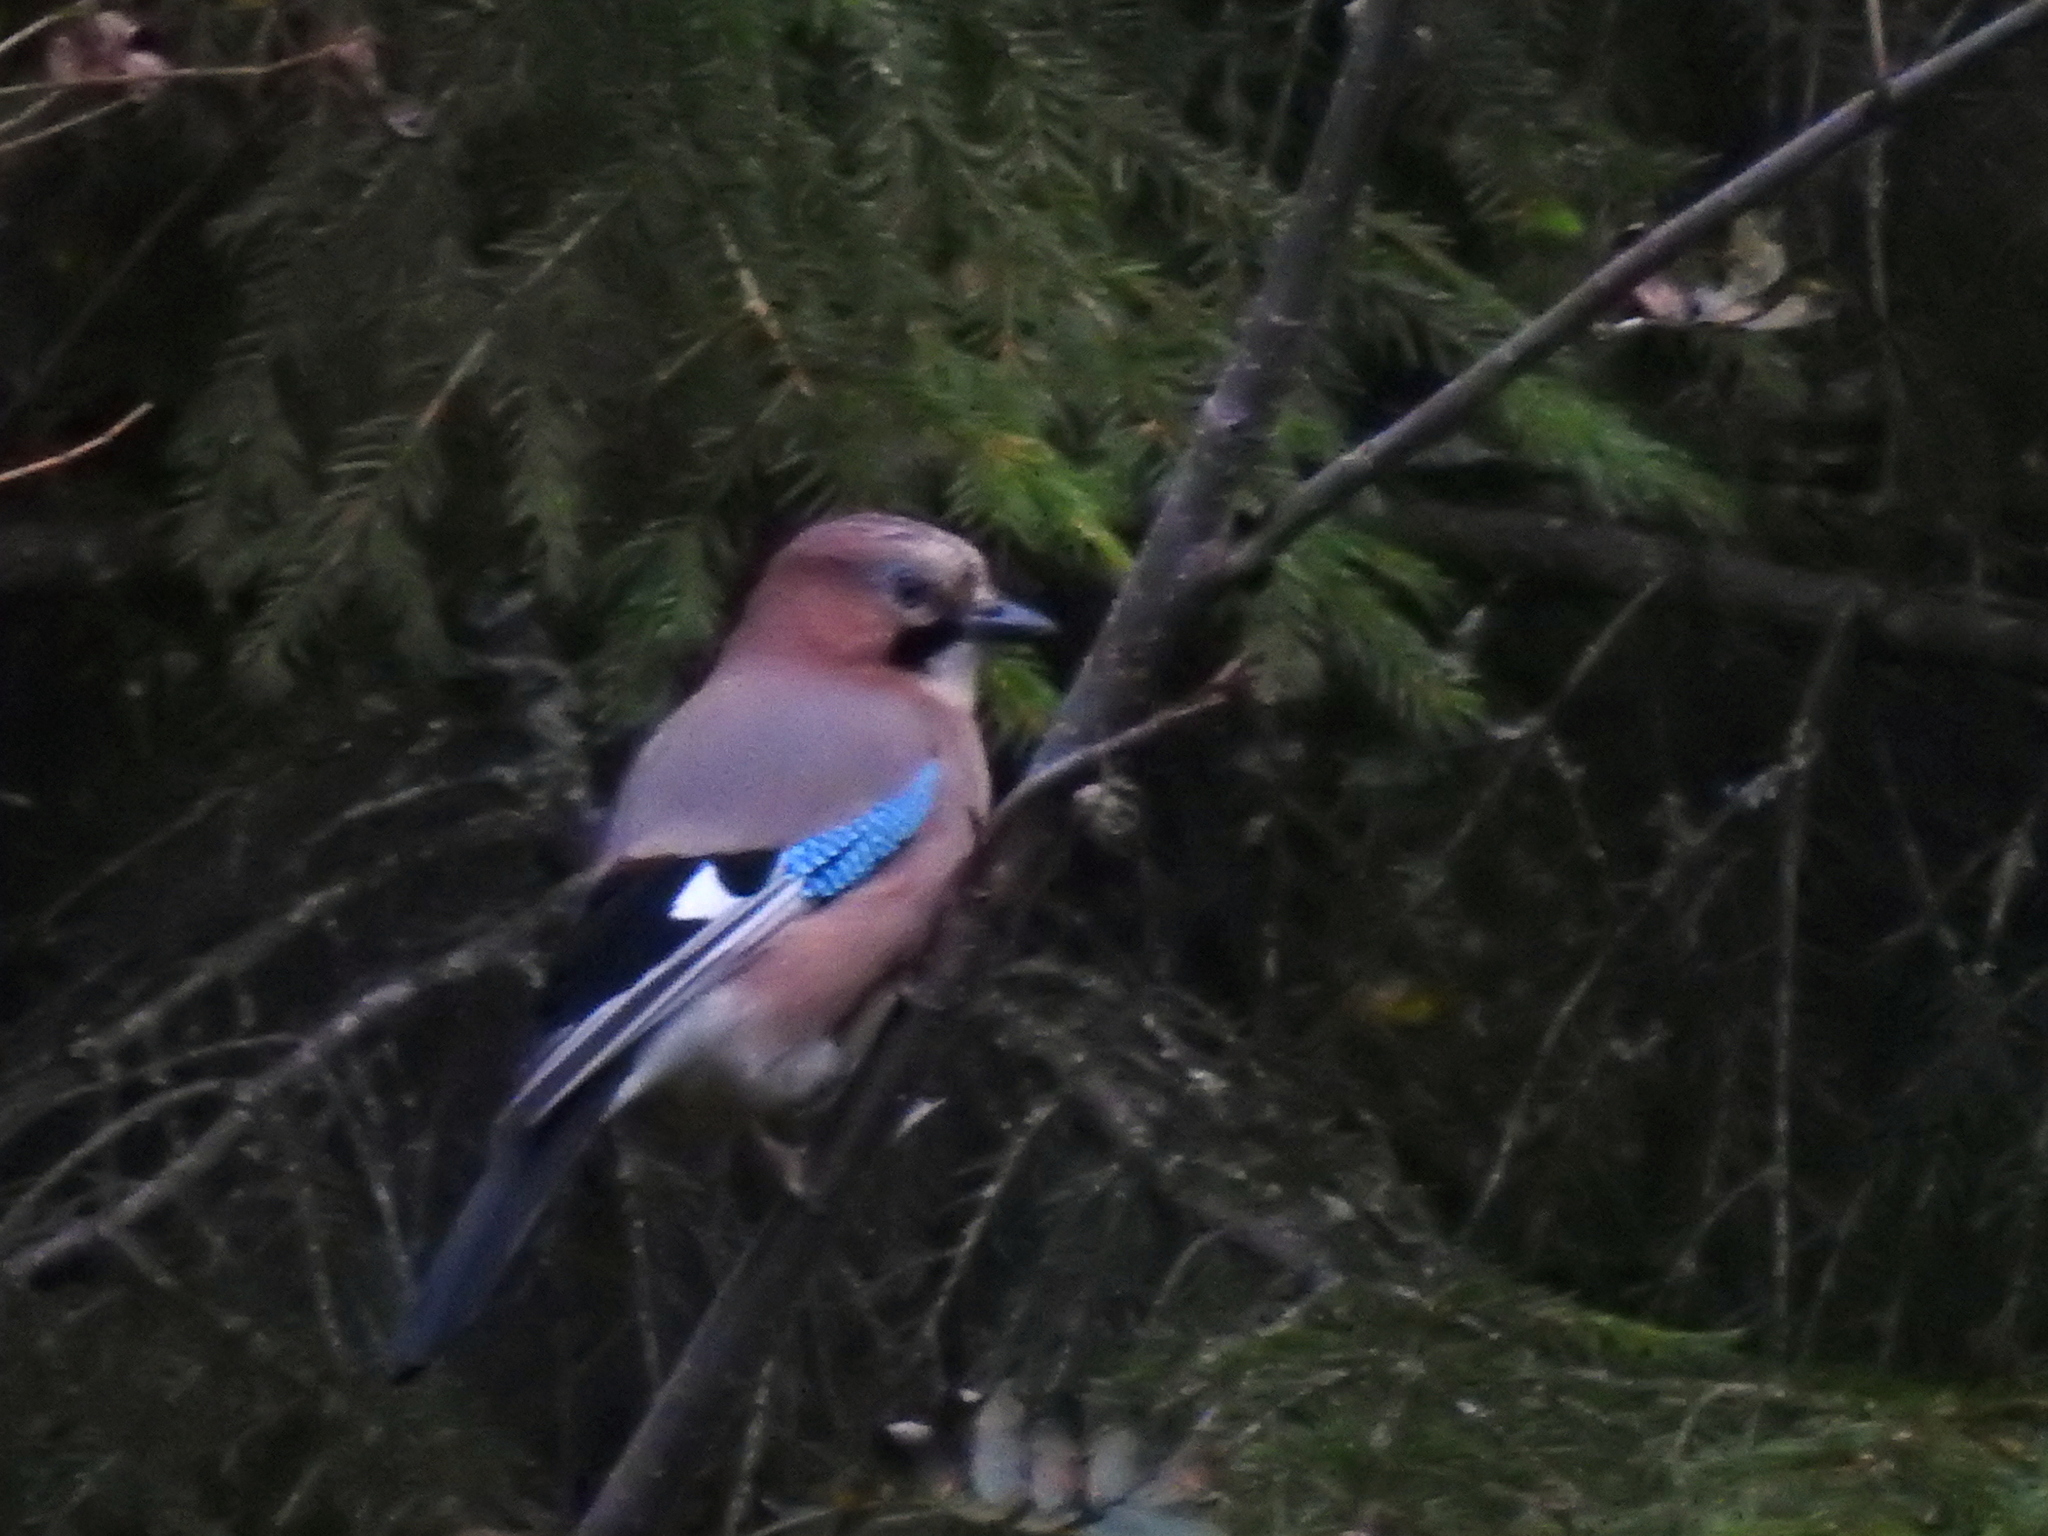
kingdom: Animalia
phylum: Chordata
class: Aves
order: Passeriformes
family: Corvidae
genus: Garrulus
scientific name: Garrulus glandarius
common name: Eurasian jay
